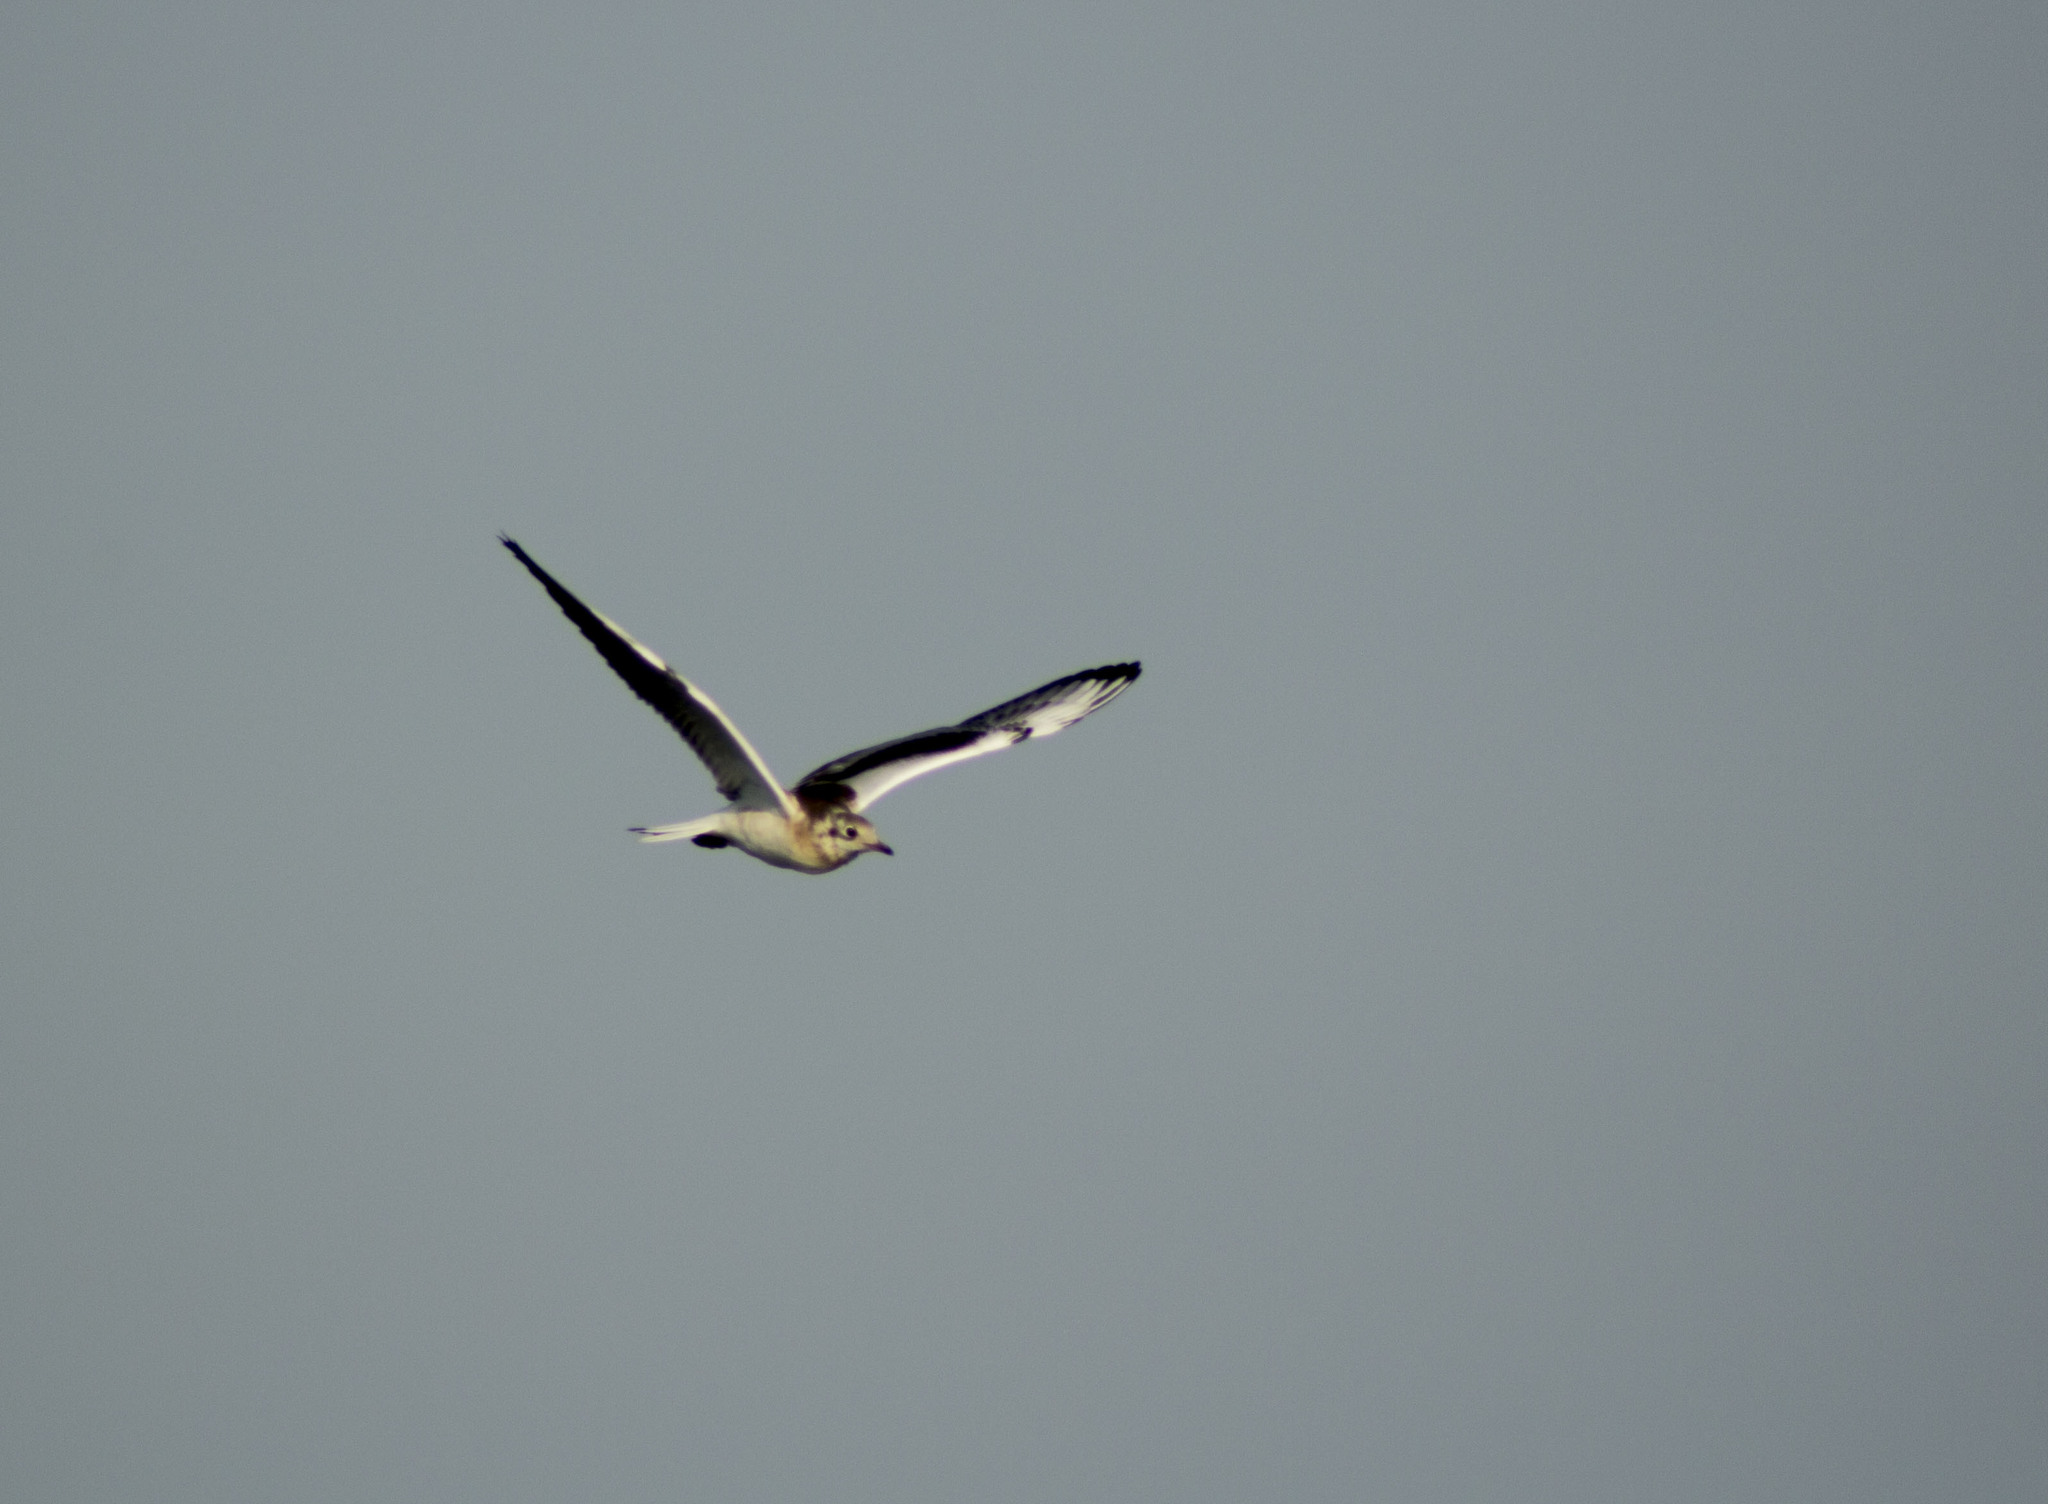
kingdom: Animalia
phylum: Chordata
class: Aves
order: Charadriiformes
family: Laridae
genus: Chroicocephalus
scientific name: Chroicocephalus ridibundus
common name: Black-headed gull
